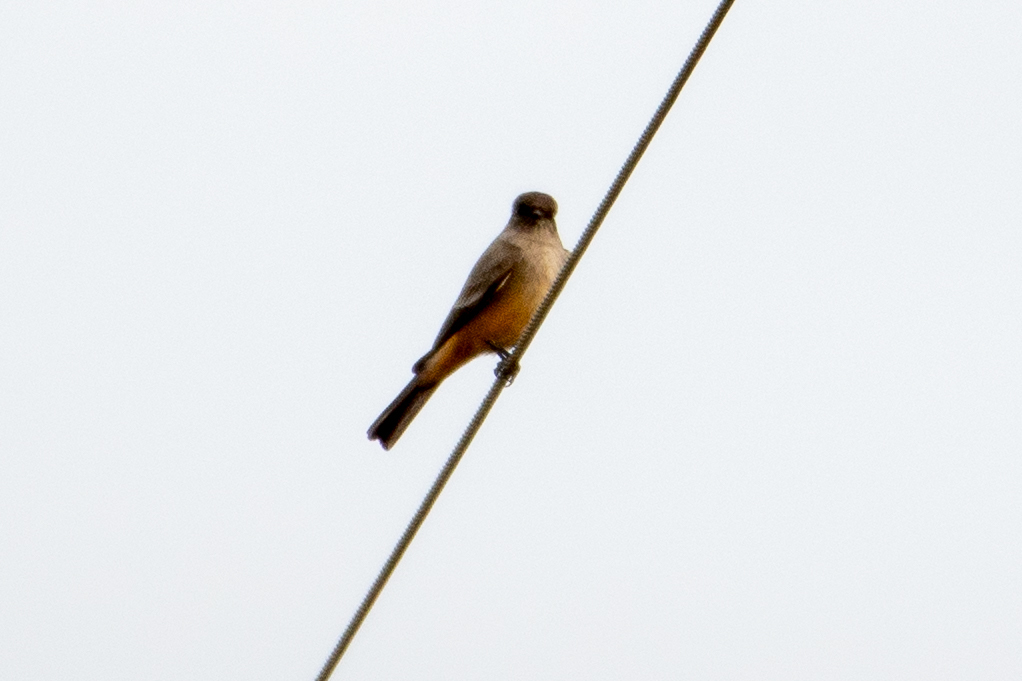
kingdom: Animalia
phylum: Chordata
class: Aves
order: Passeriformes
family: Tyrannidae
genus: Sayornis
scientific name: Sayornis saya
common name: Say's phoebe
